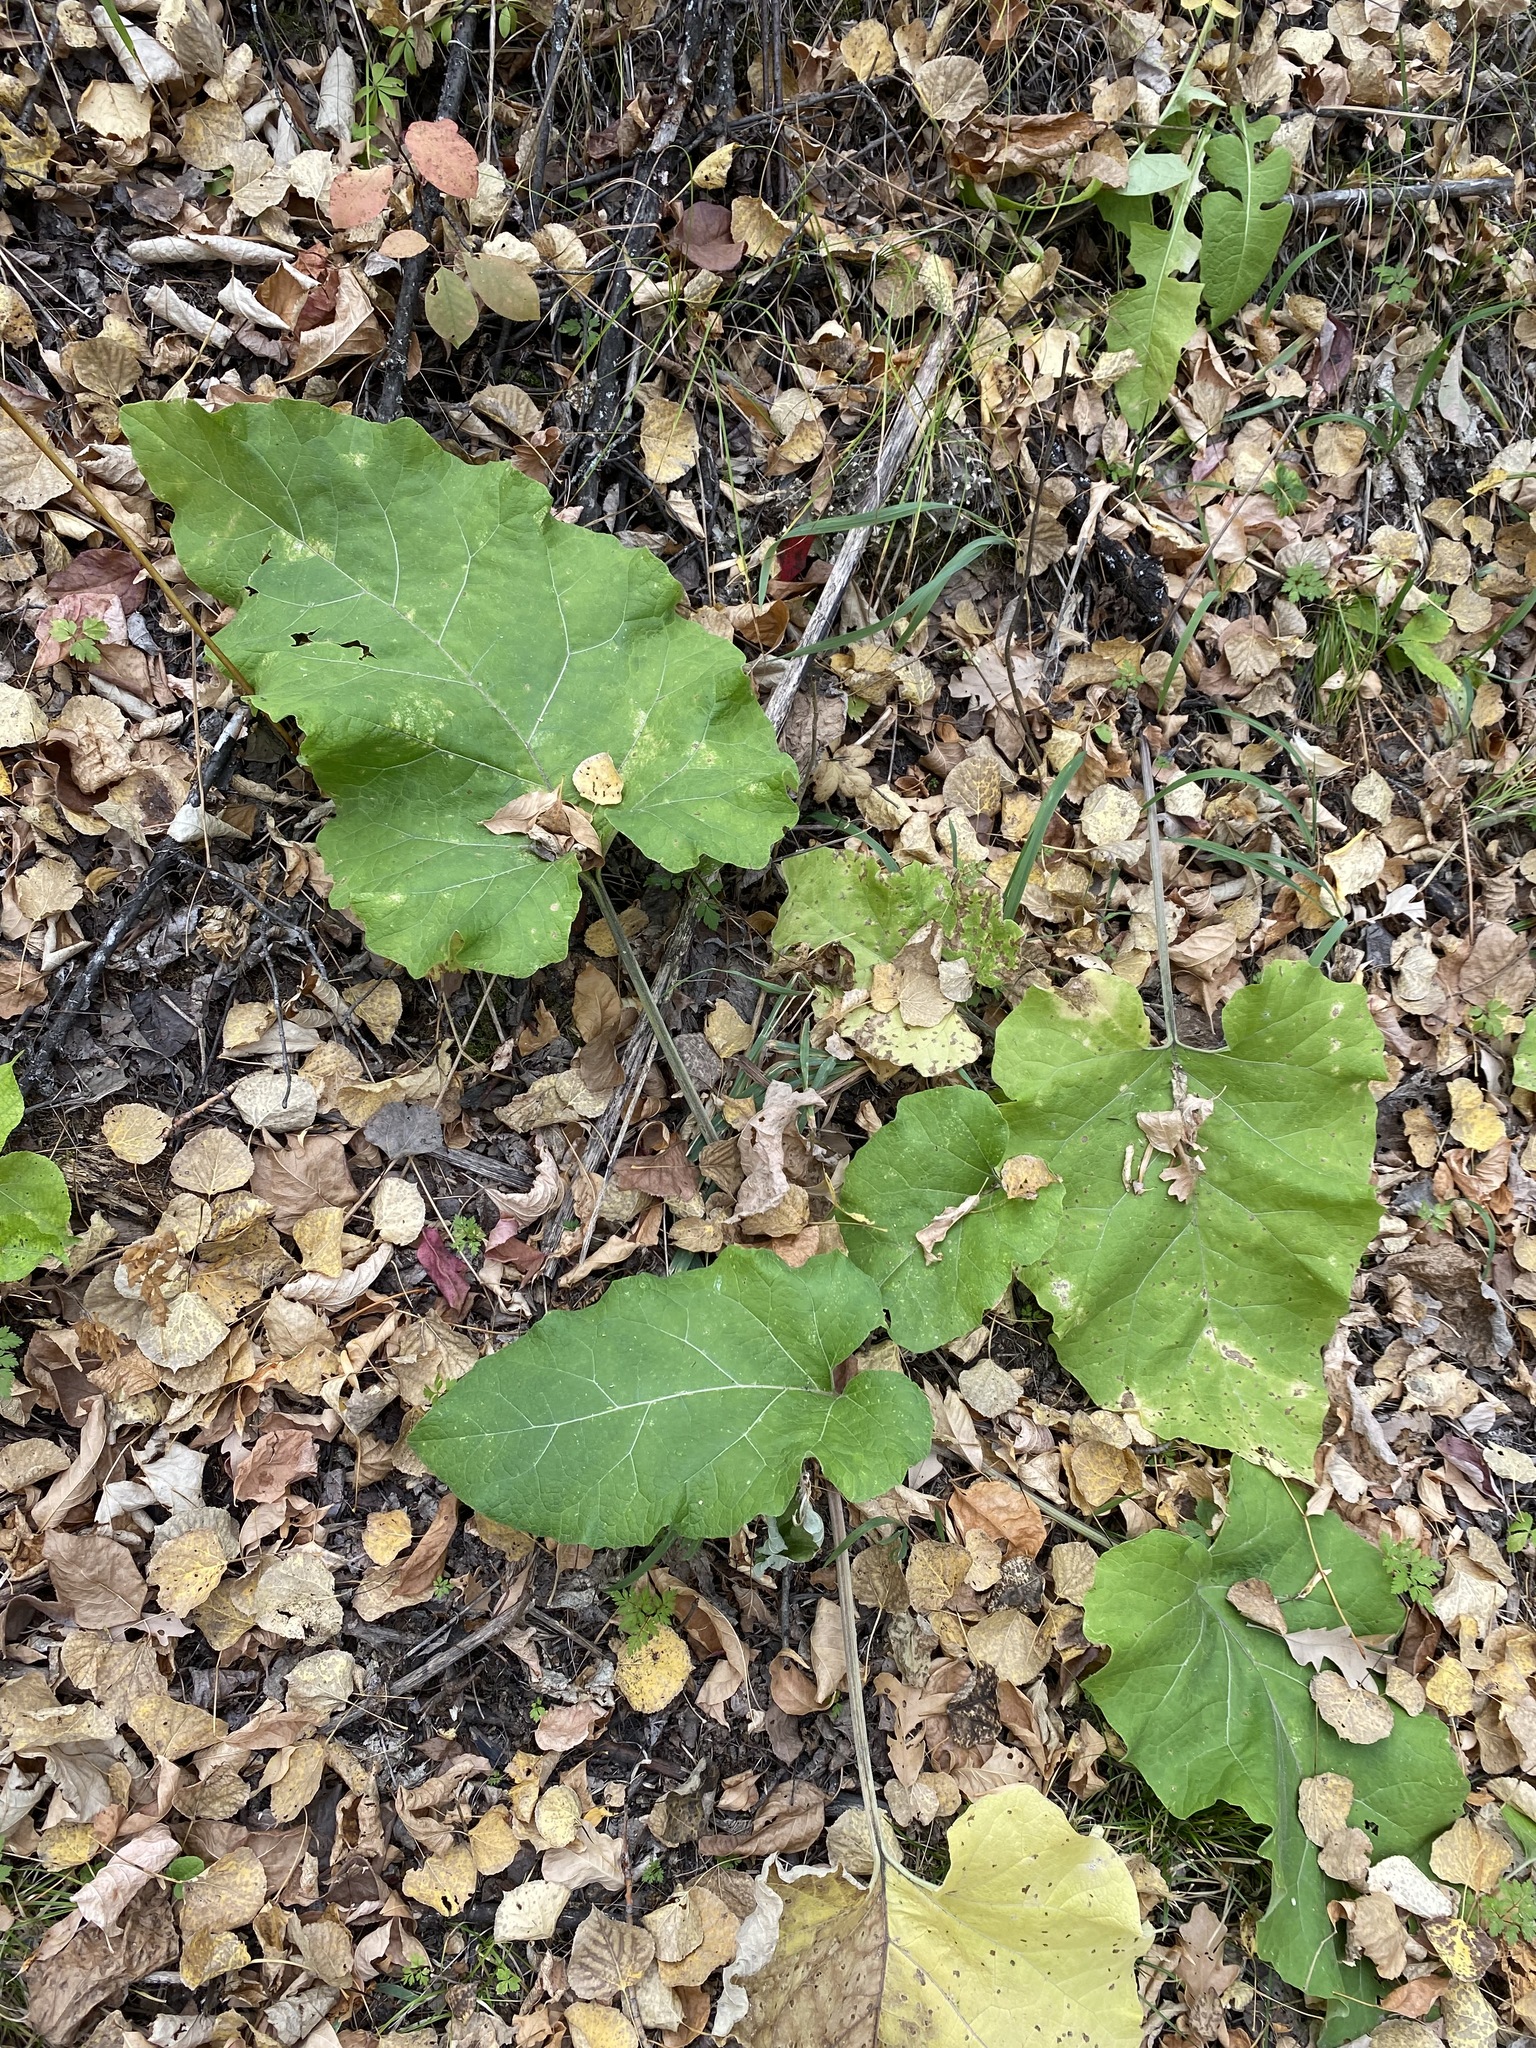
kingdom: Plantae
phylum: Tracheophyta
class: Magnoliopsida
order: Asterales
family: Asteraceae
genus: Arctium
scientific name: Arctium
